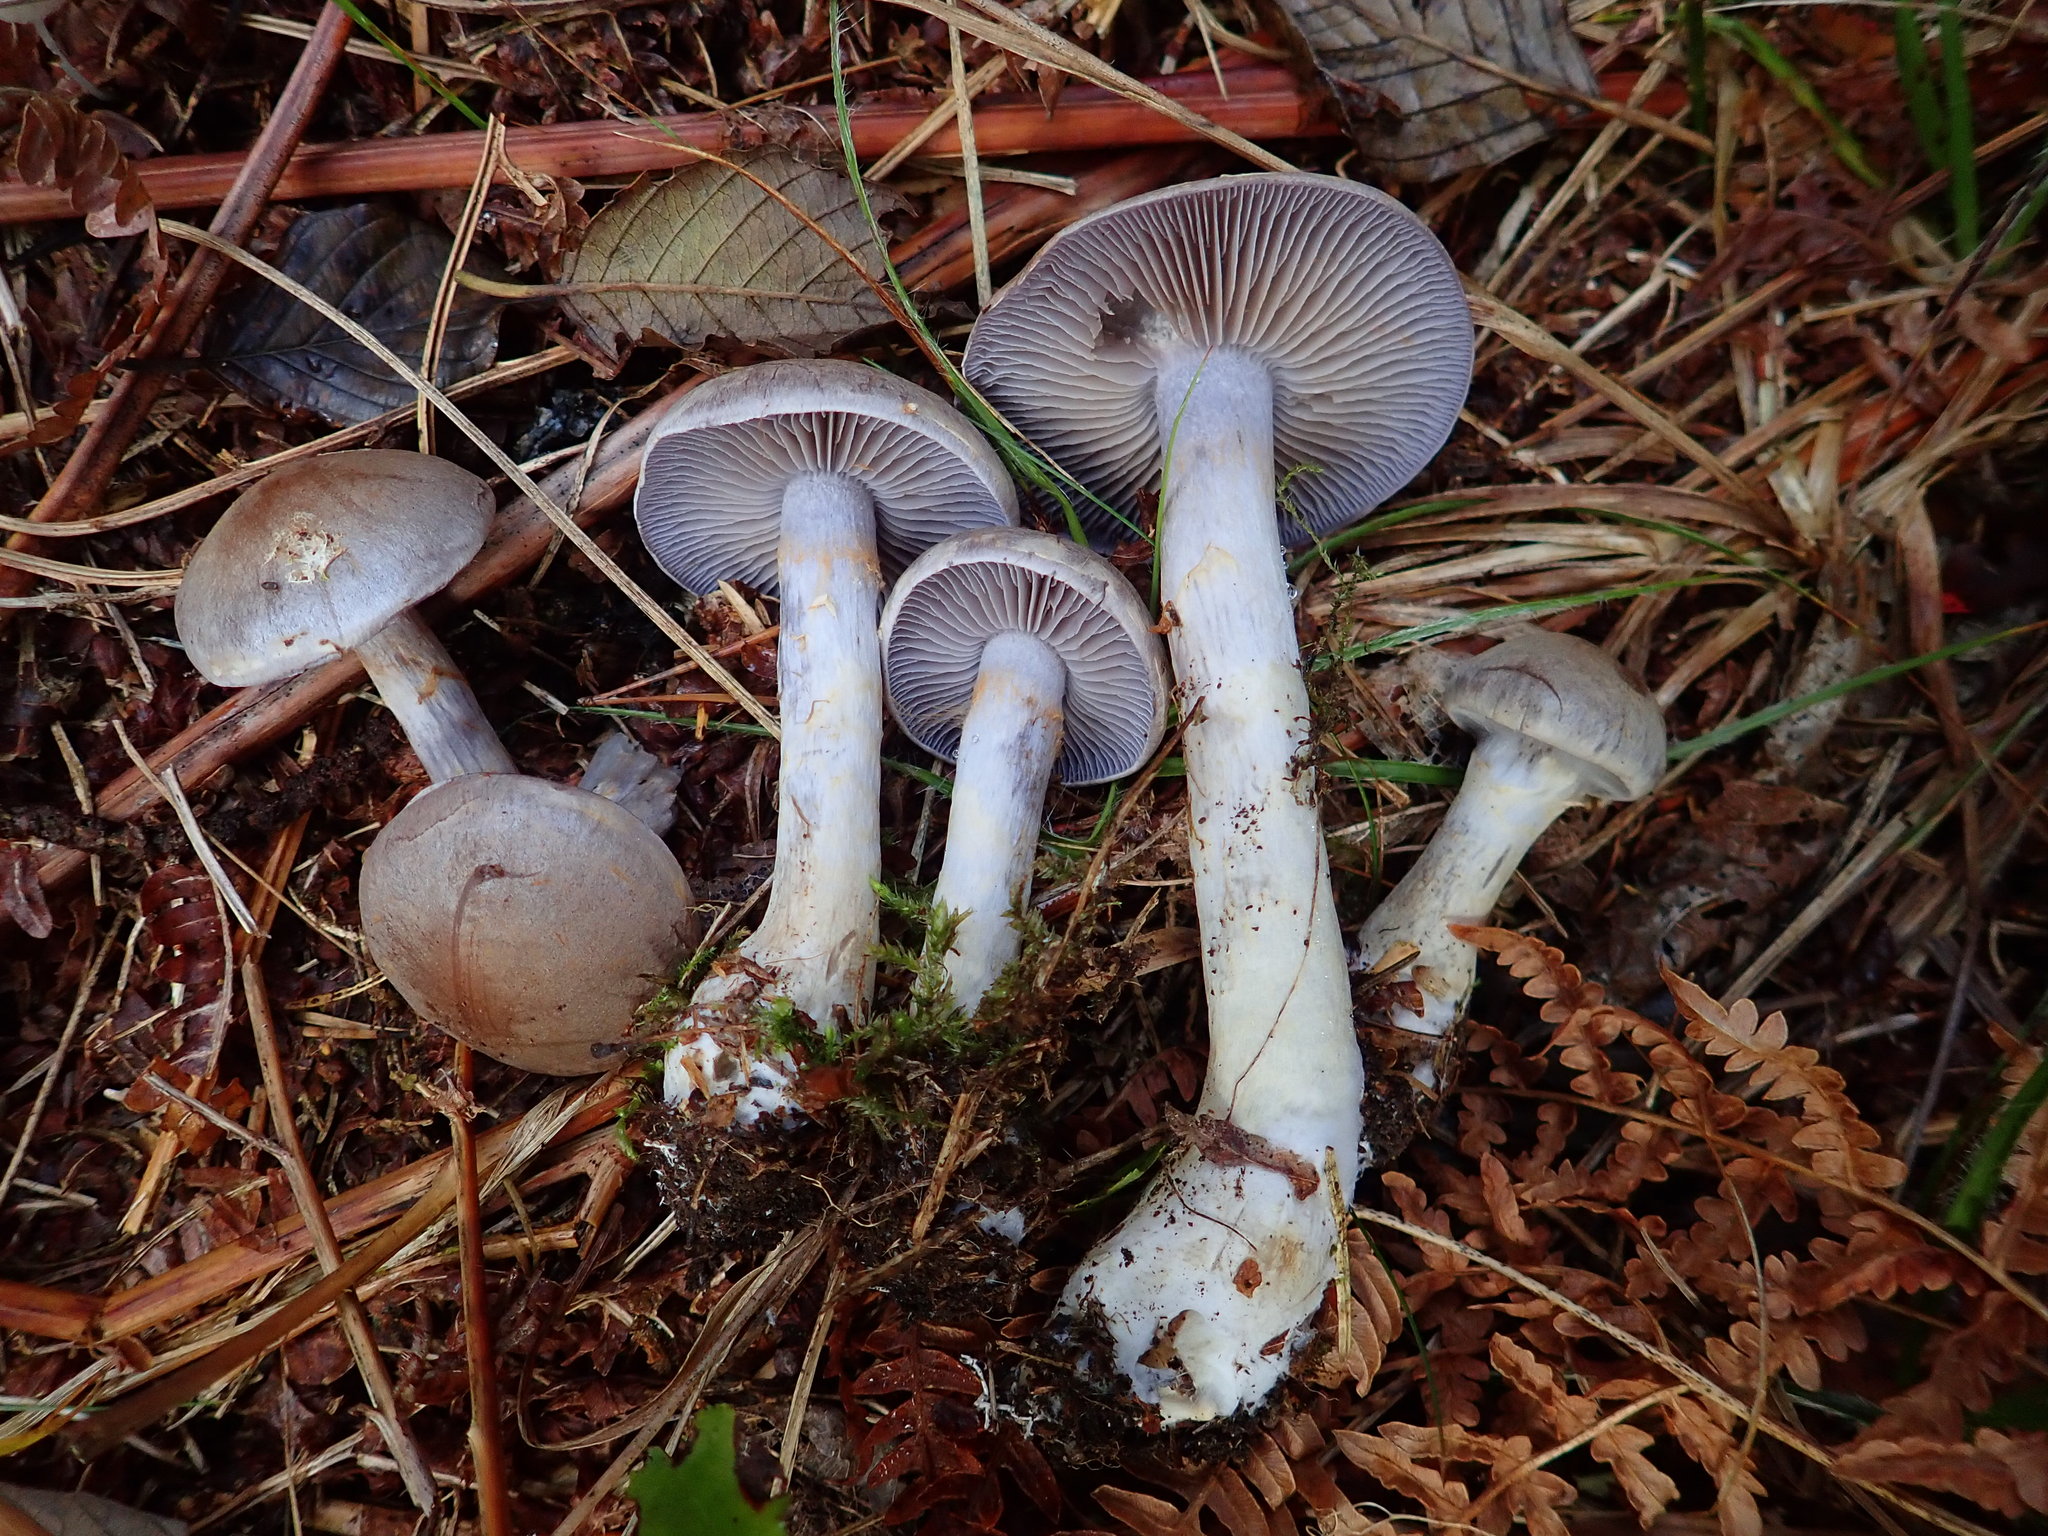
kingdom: Fungi
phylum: Basidiomycota
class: Agaricomycetes
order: Agaricales
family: Cortinariaceae
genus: Cortinarius
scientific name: Cortinarius anomalus
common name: Variable webcap
